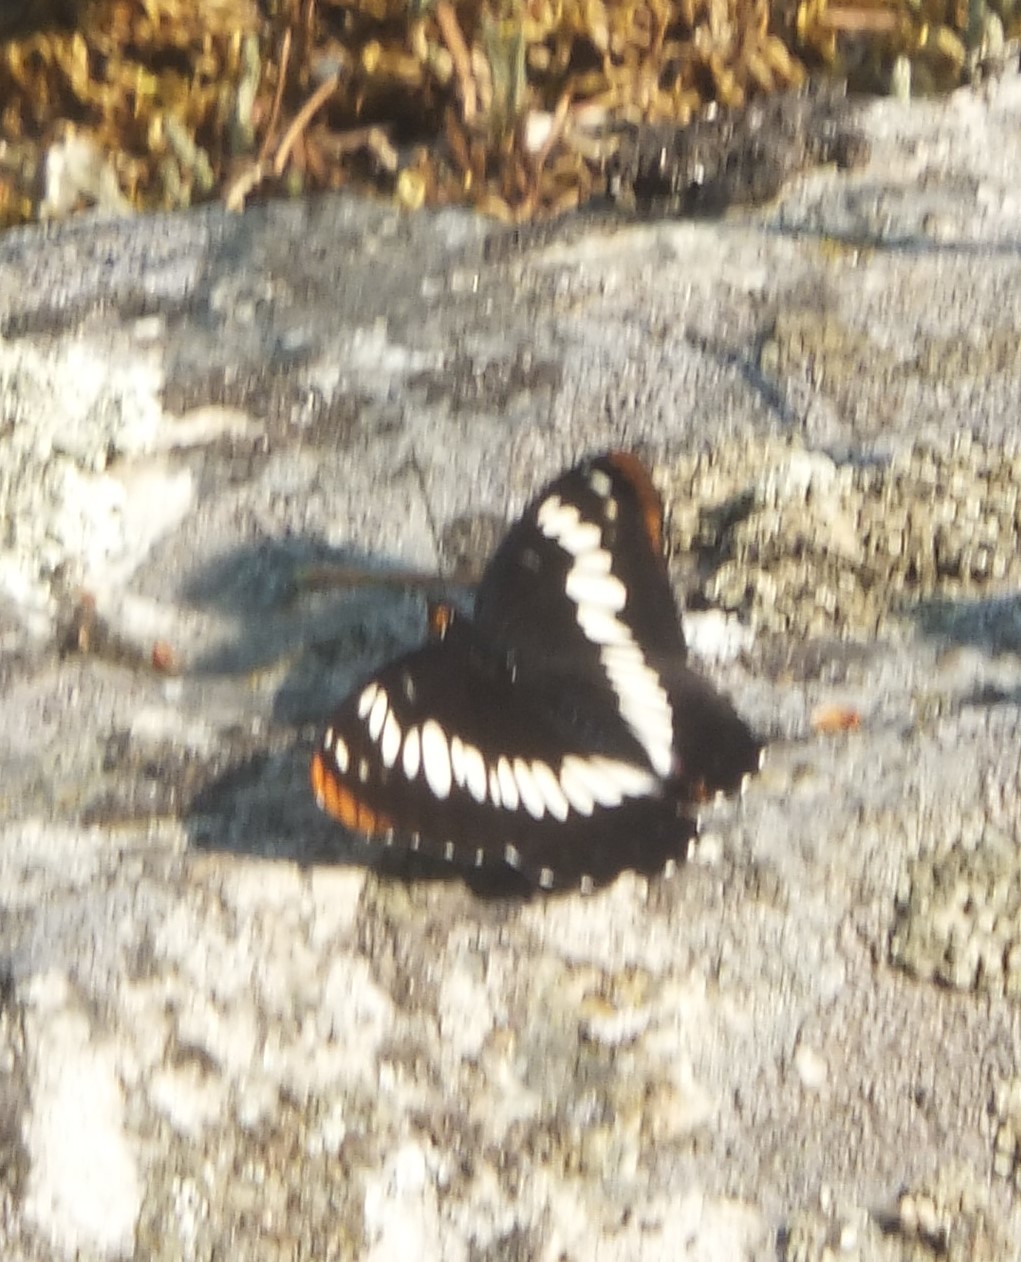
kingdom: Animalia
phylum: Arthropoda
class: Insecta
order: Lepidoptera
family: Nymphalidae
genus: Limenitis
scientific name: Limenitis lorquini
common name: Lorquin's admiral
